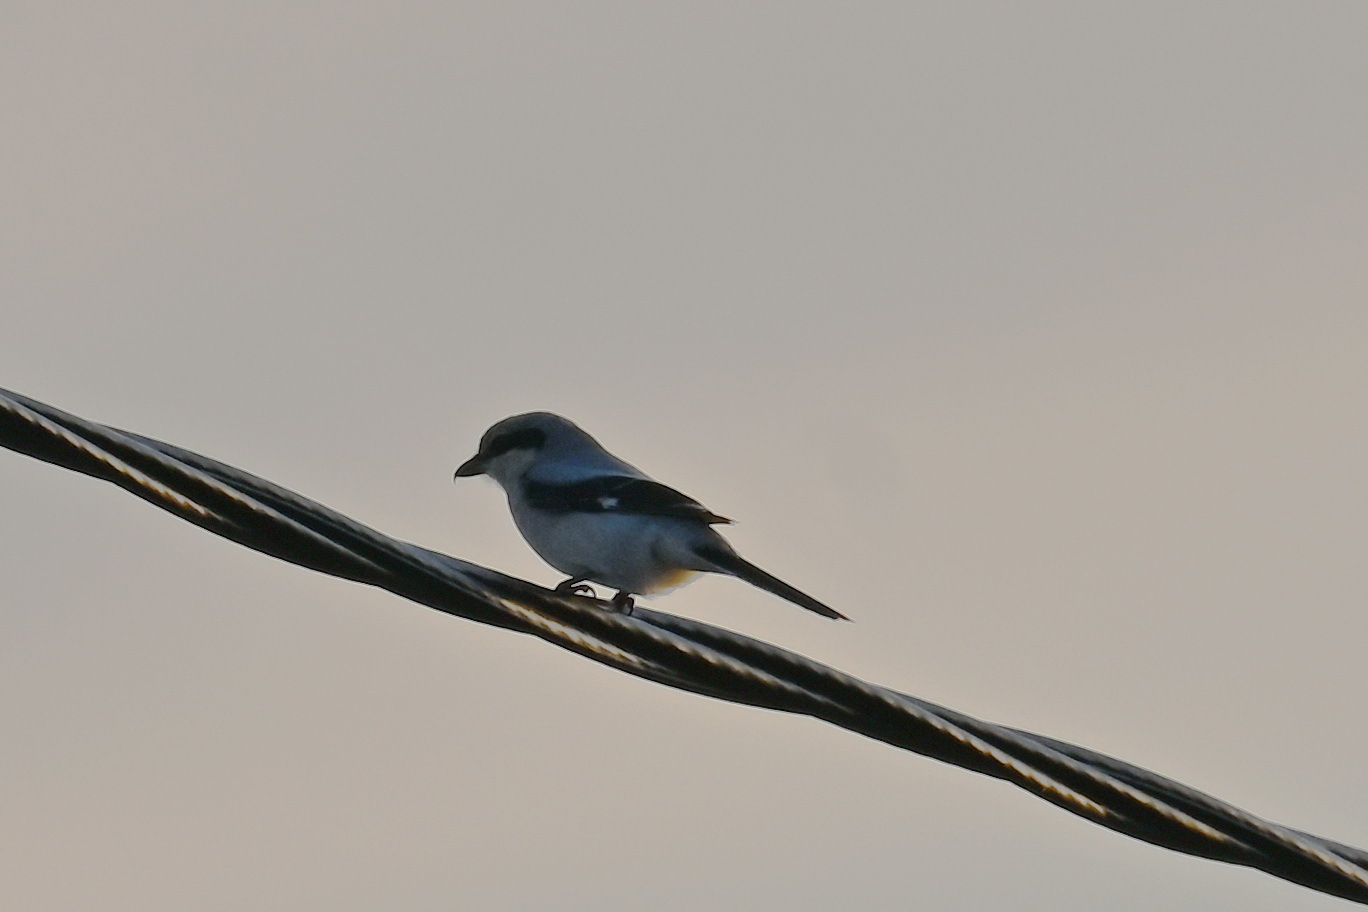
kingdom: Animalia
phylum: Chordata
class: Aves
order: Passeriformes
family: Laniidae
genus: Lanius
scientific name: Lanius excubitor
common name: Great grey shrike
